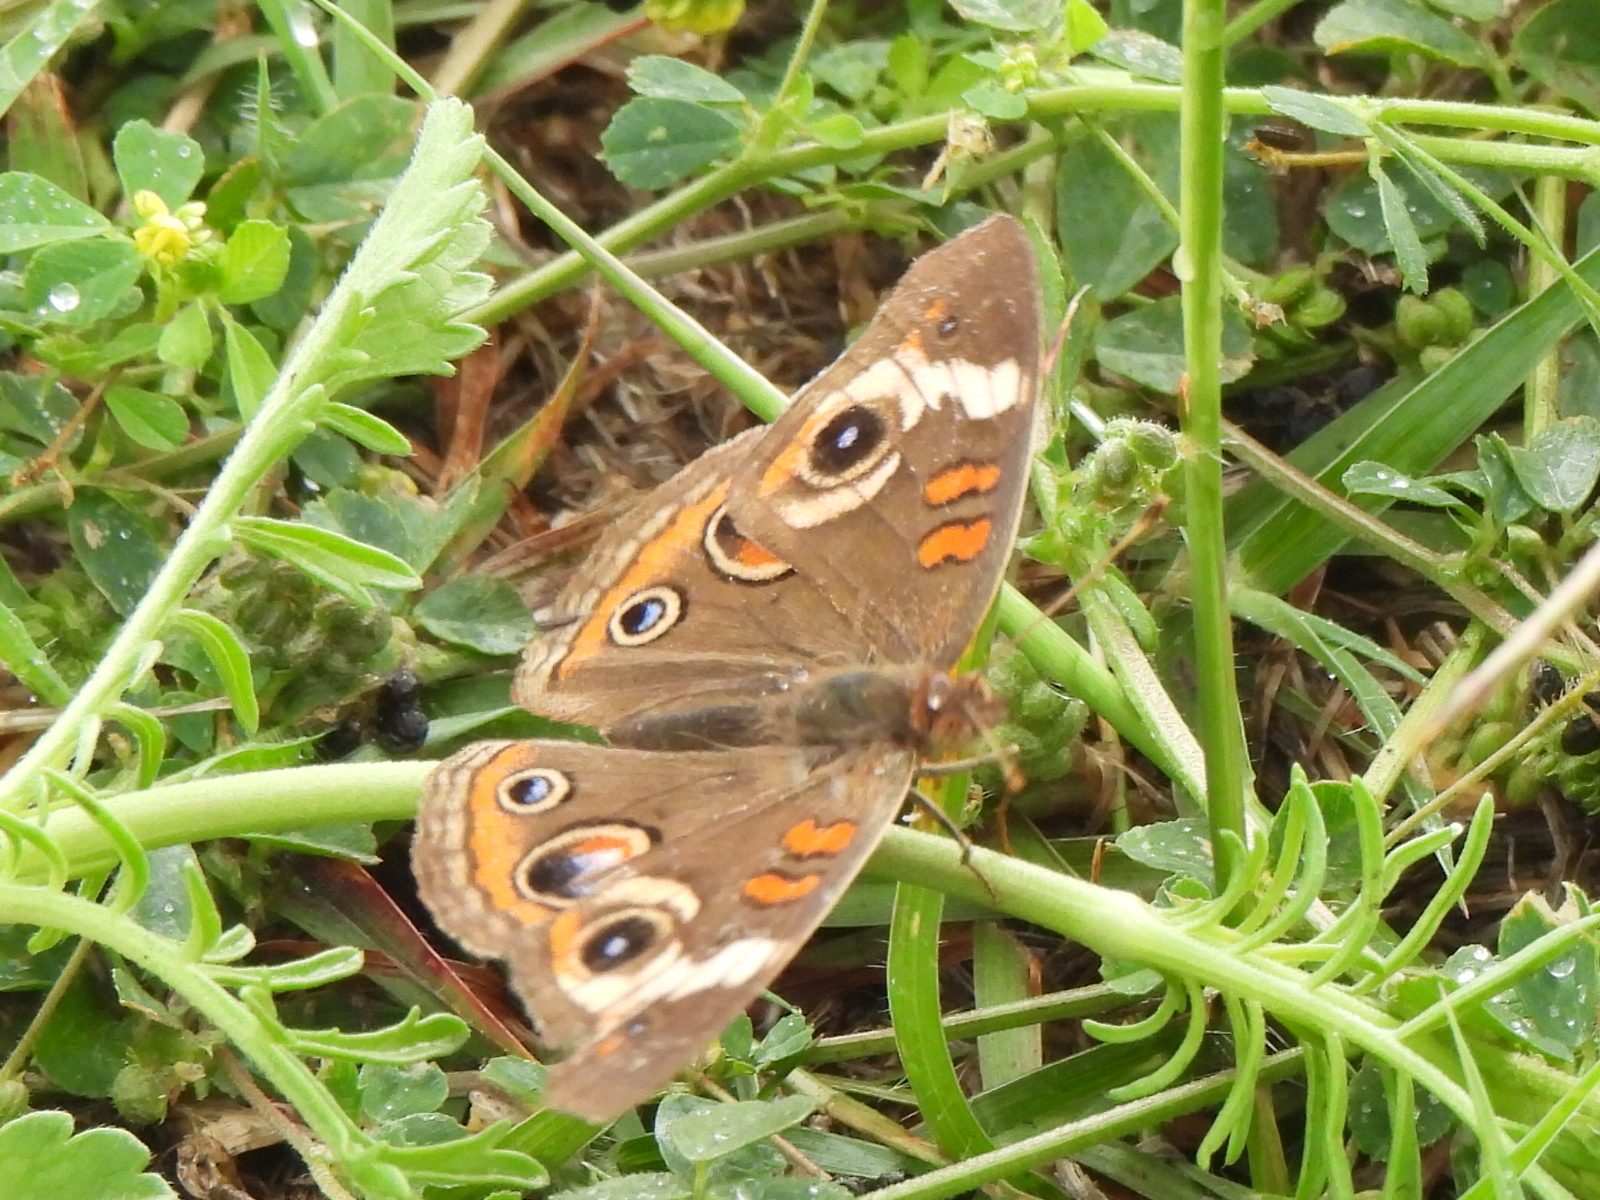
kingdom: Animalia
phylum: Arthropoda
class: Insecta
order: Lepidoptera
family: Nymphalidae
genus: Junonia
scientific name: Junonia coenia
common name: Common buckeye
